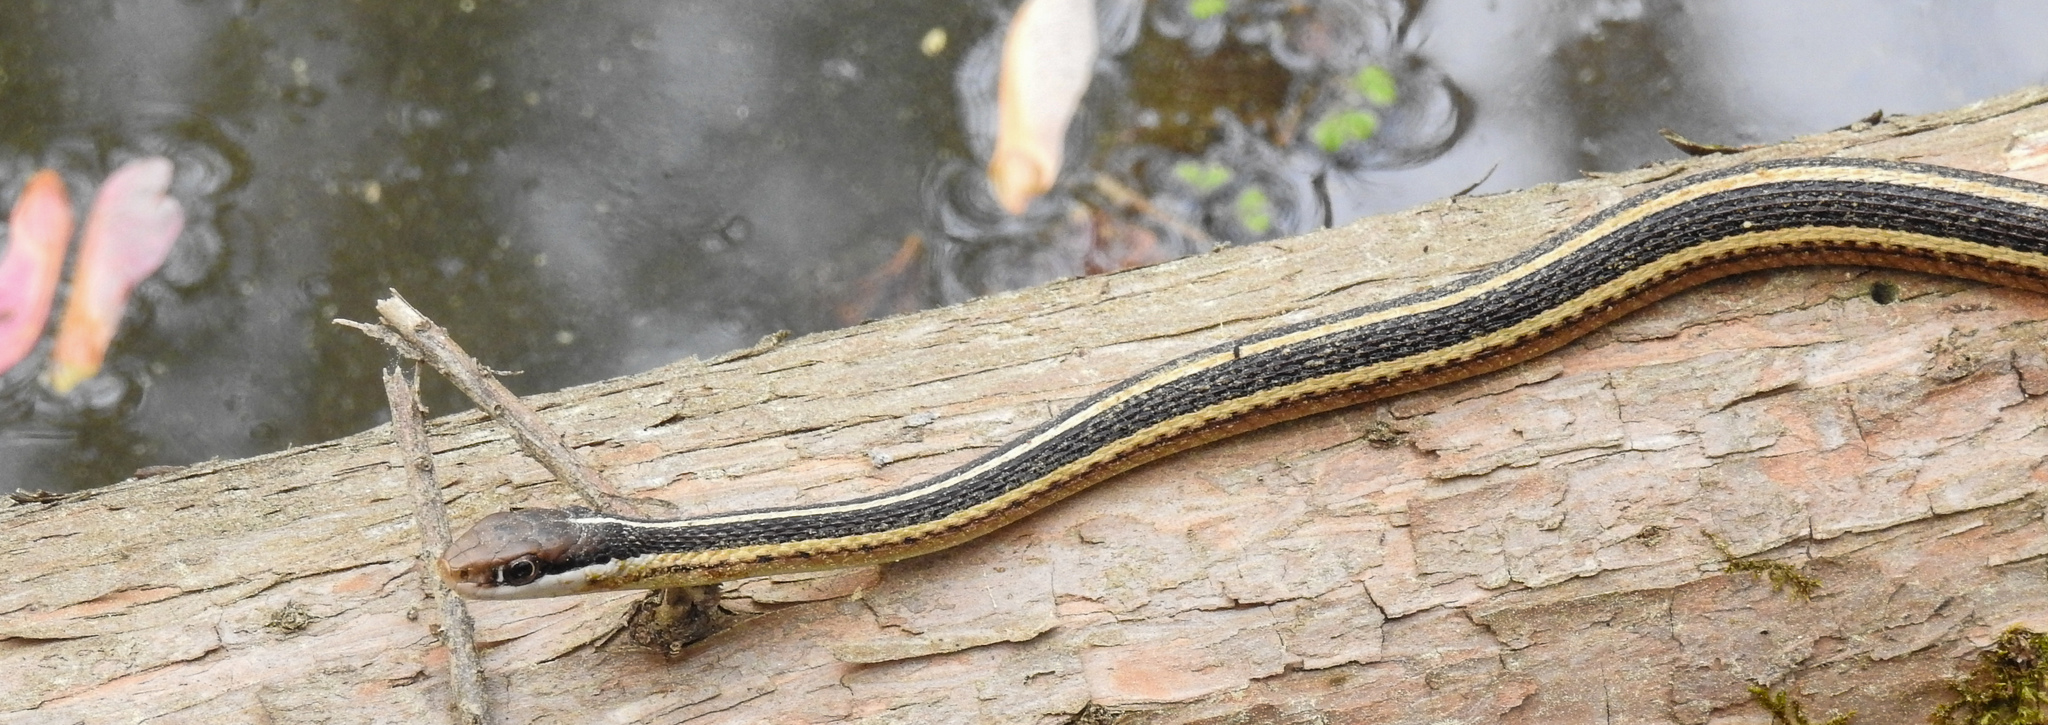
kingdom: Animalia
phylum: Chordata
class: Squamata
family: Colubridae
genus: Thamnophis
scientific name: Thamnophis saurita
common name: Eastern ribbonsnake
